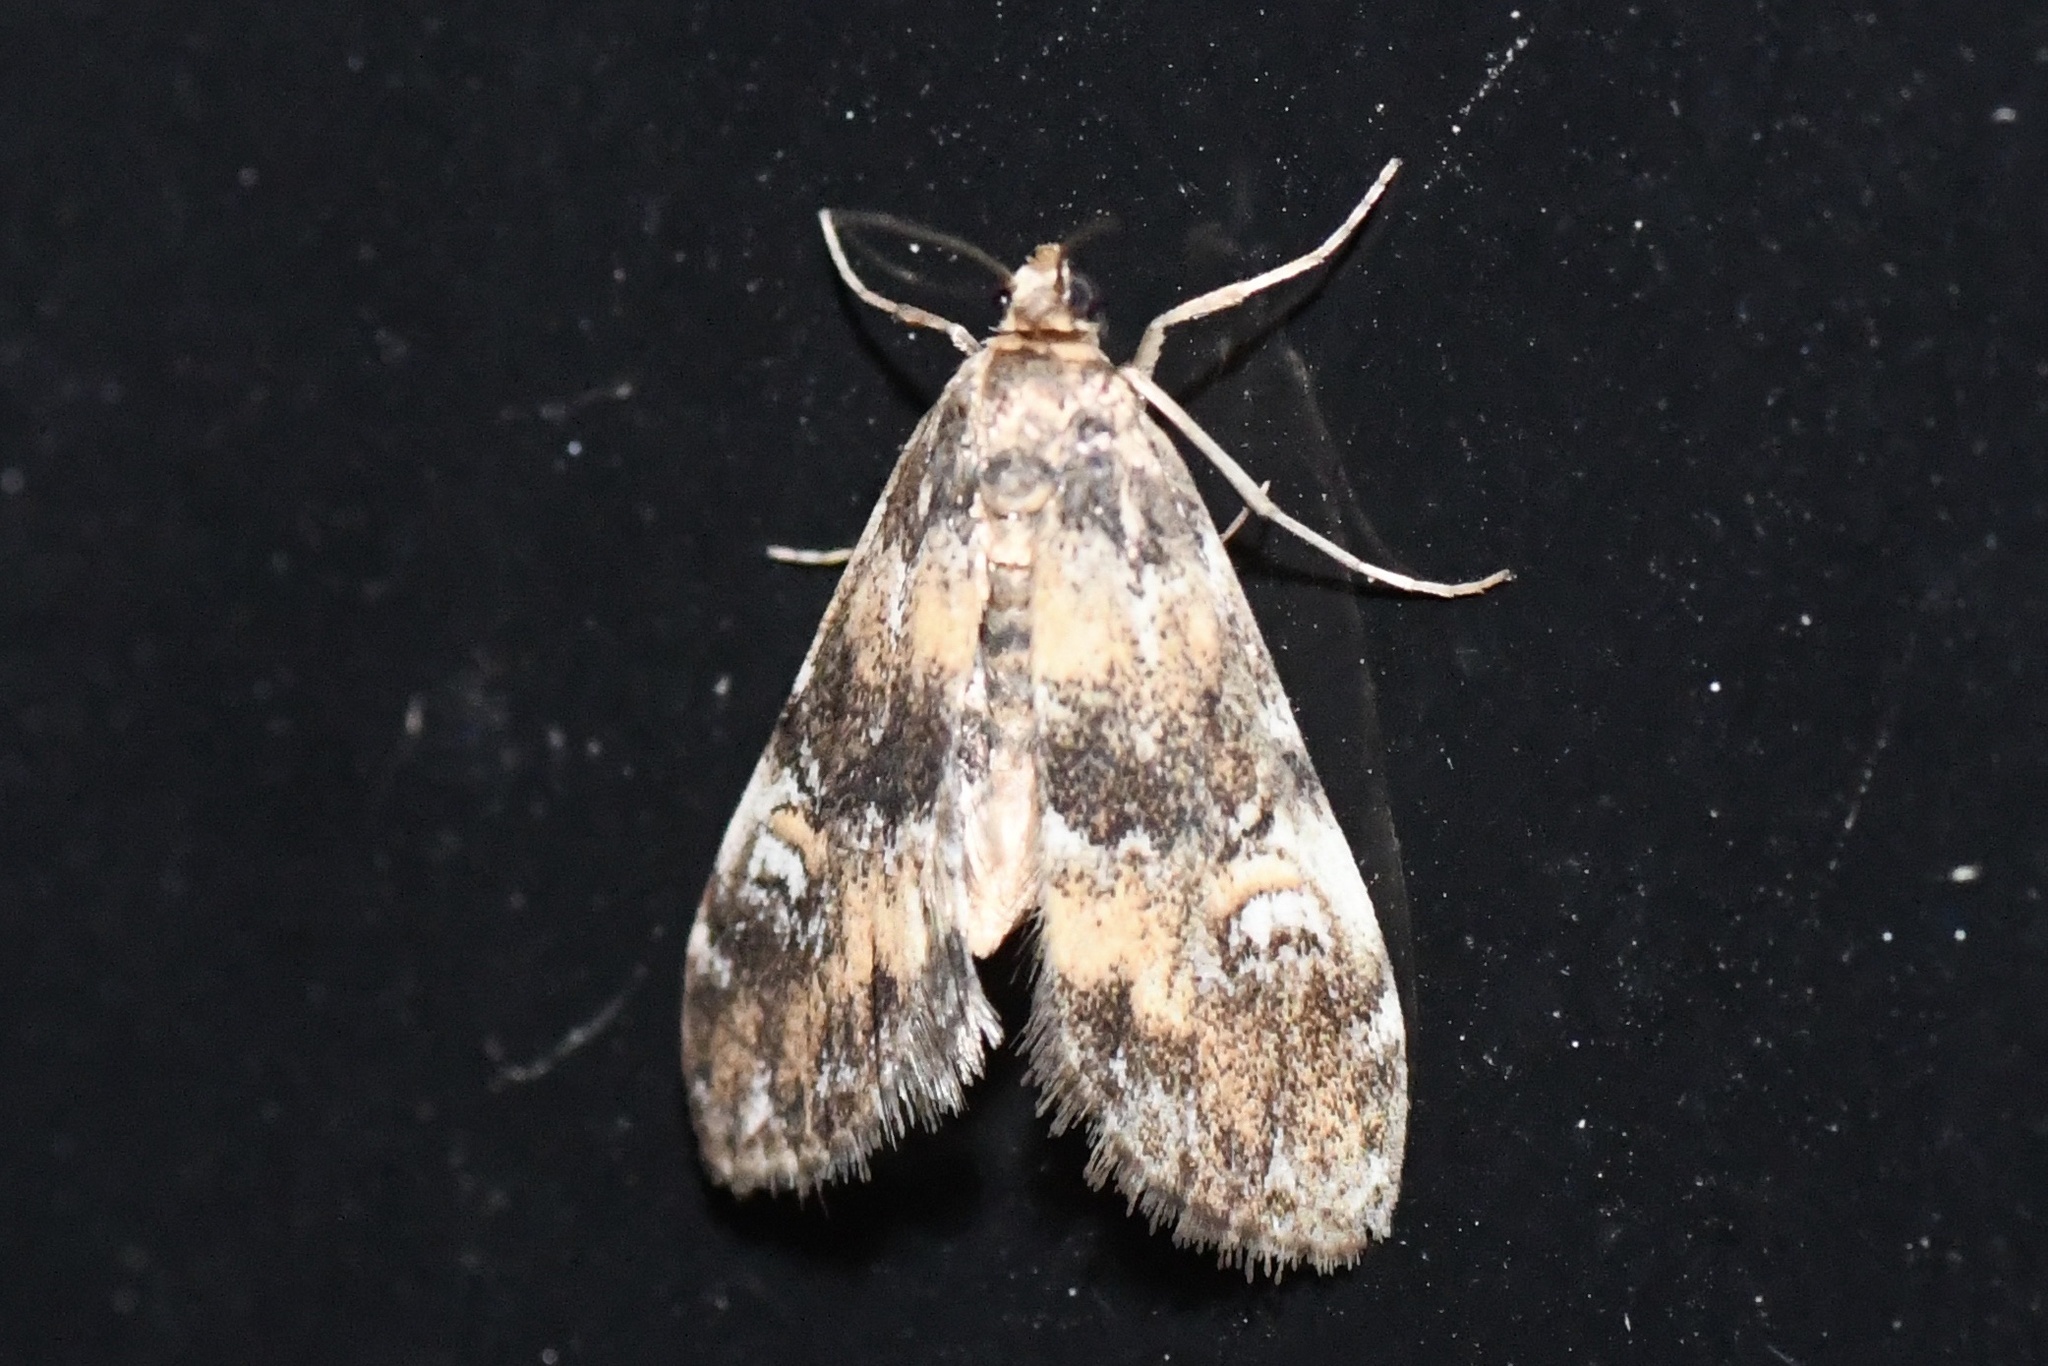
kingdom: Animalia
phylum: Arthropoda
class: Insecta
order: Lepidoptera
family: Crambidae
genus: Elophila
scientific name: Elophila obliteralis
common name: Waterlily leafcutter moth
